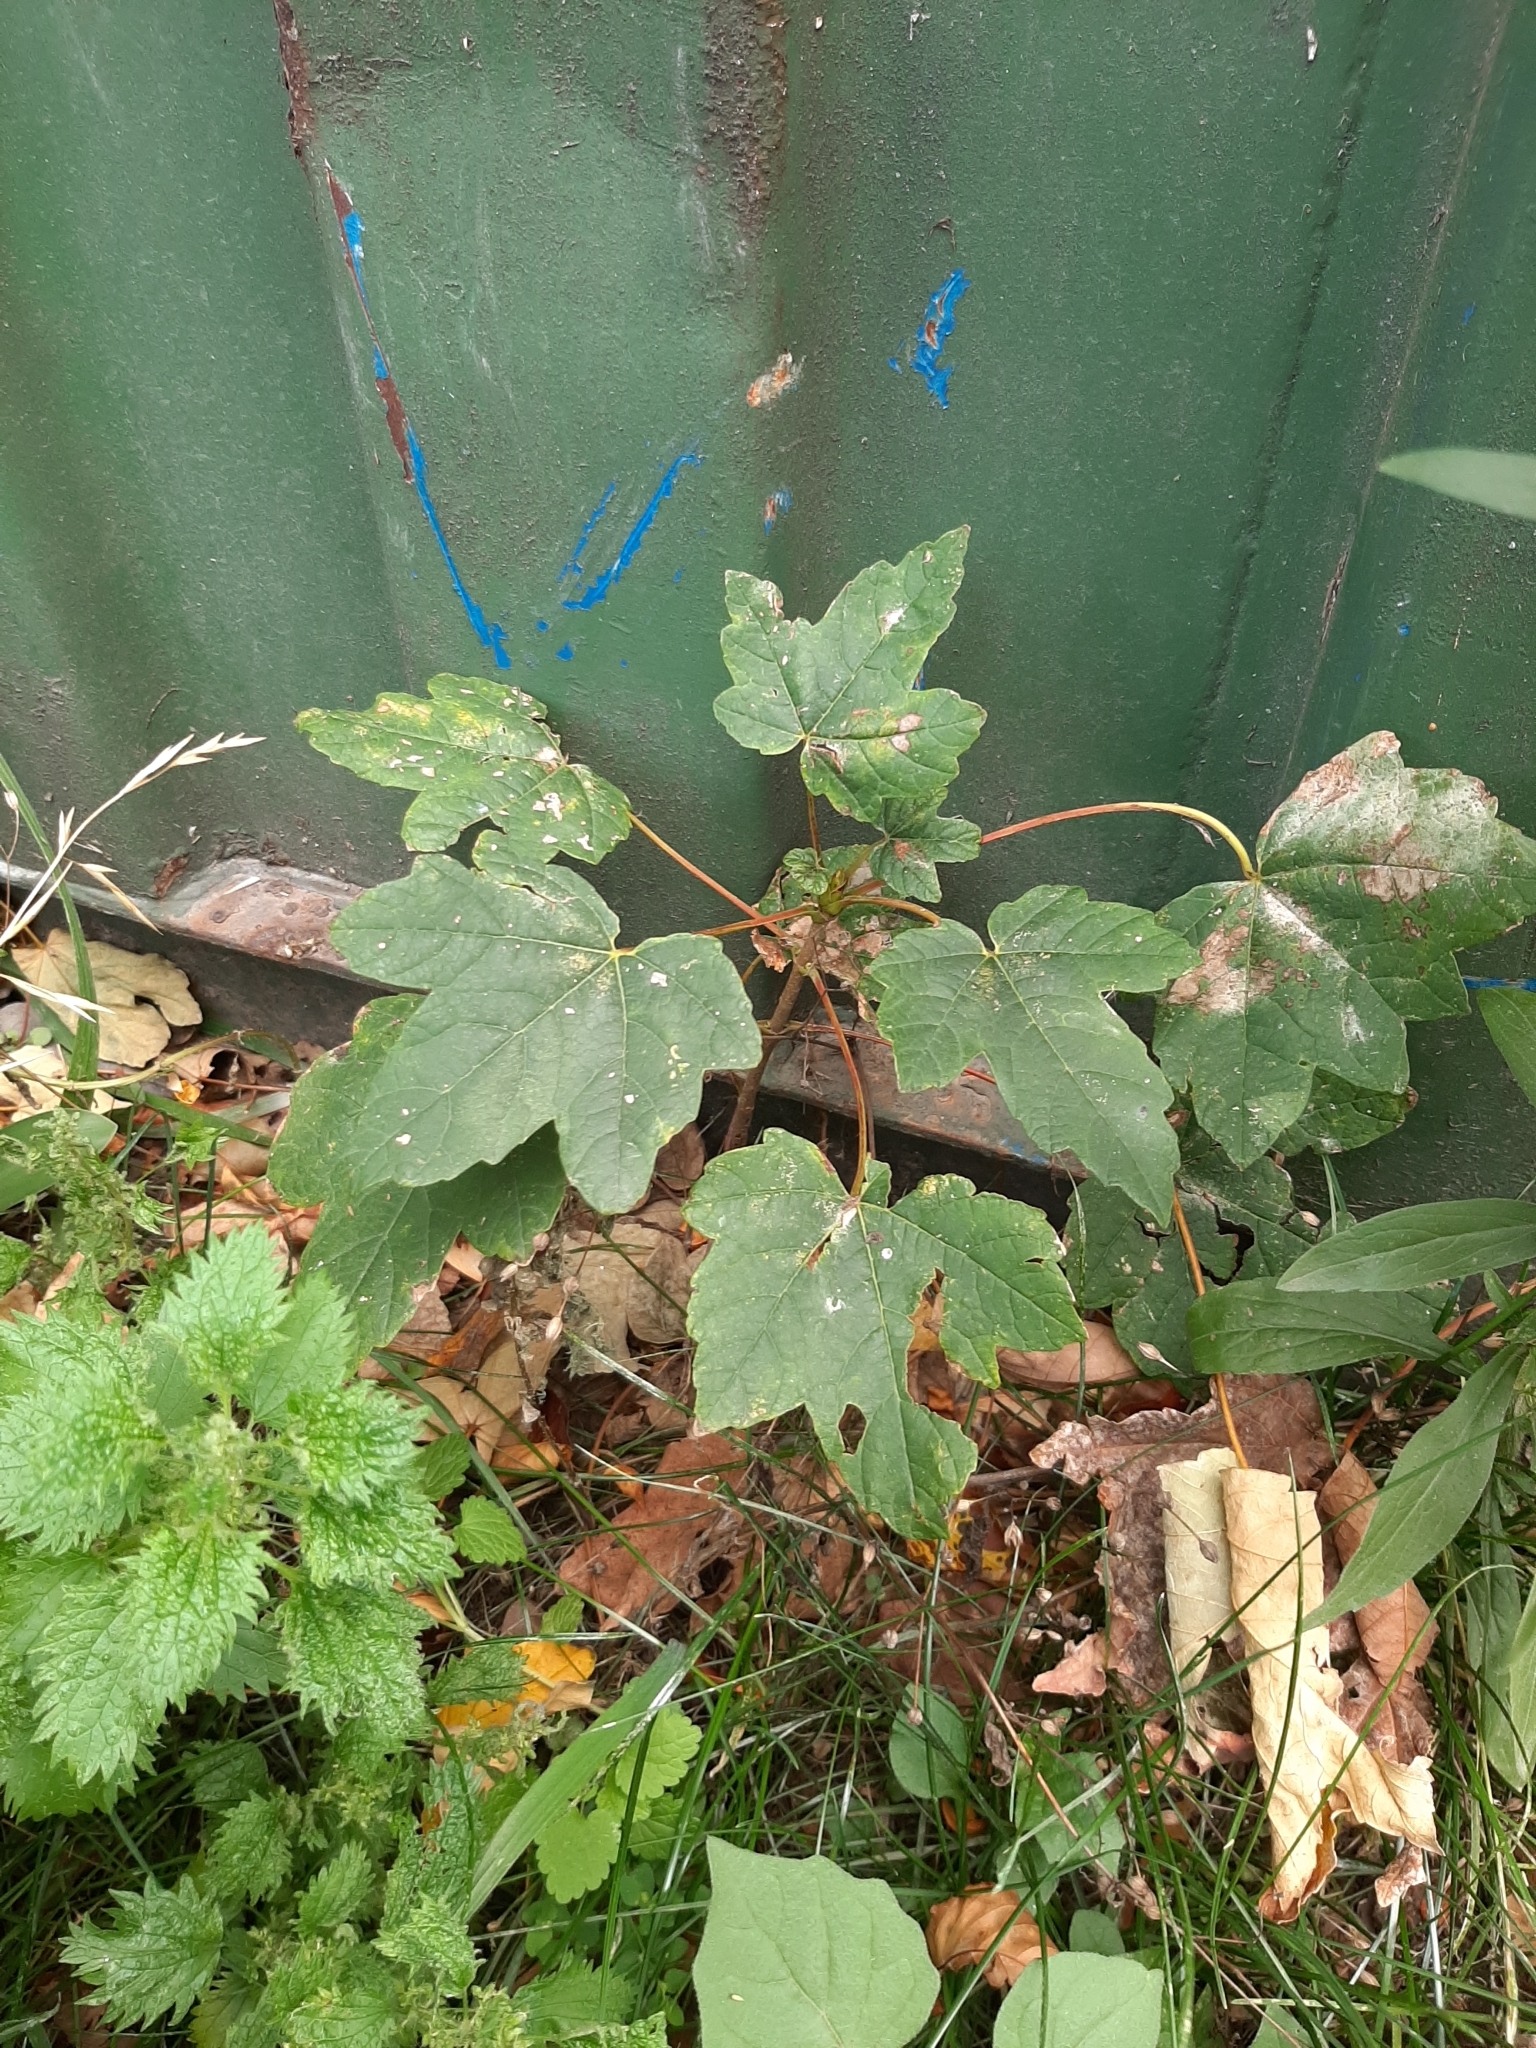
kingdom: Plantae
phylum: Tracheophyta
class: Magnoliopsida
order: Sapindales
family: Sapindaceae
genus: Acer
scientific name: Acer pseudoplatanus
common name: Sycamore
